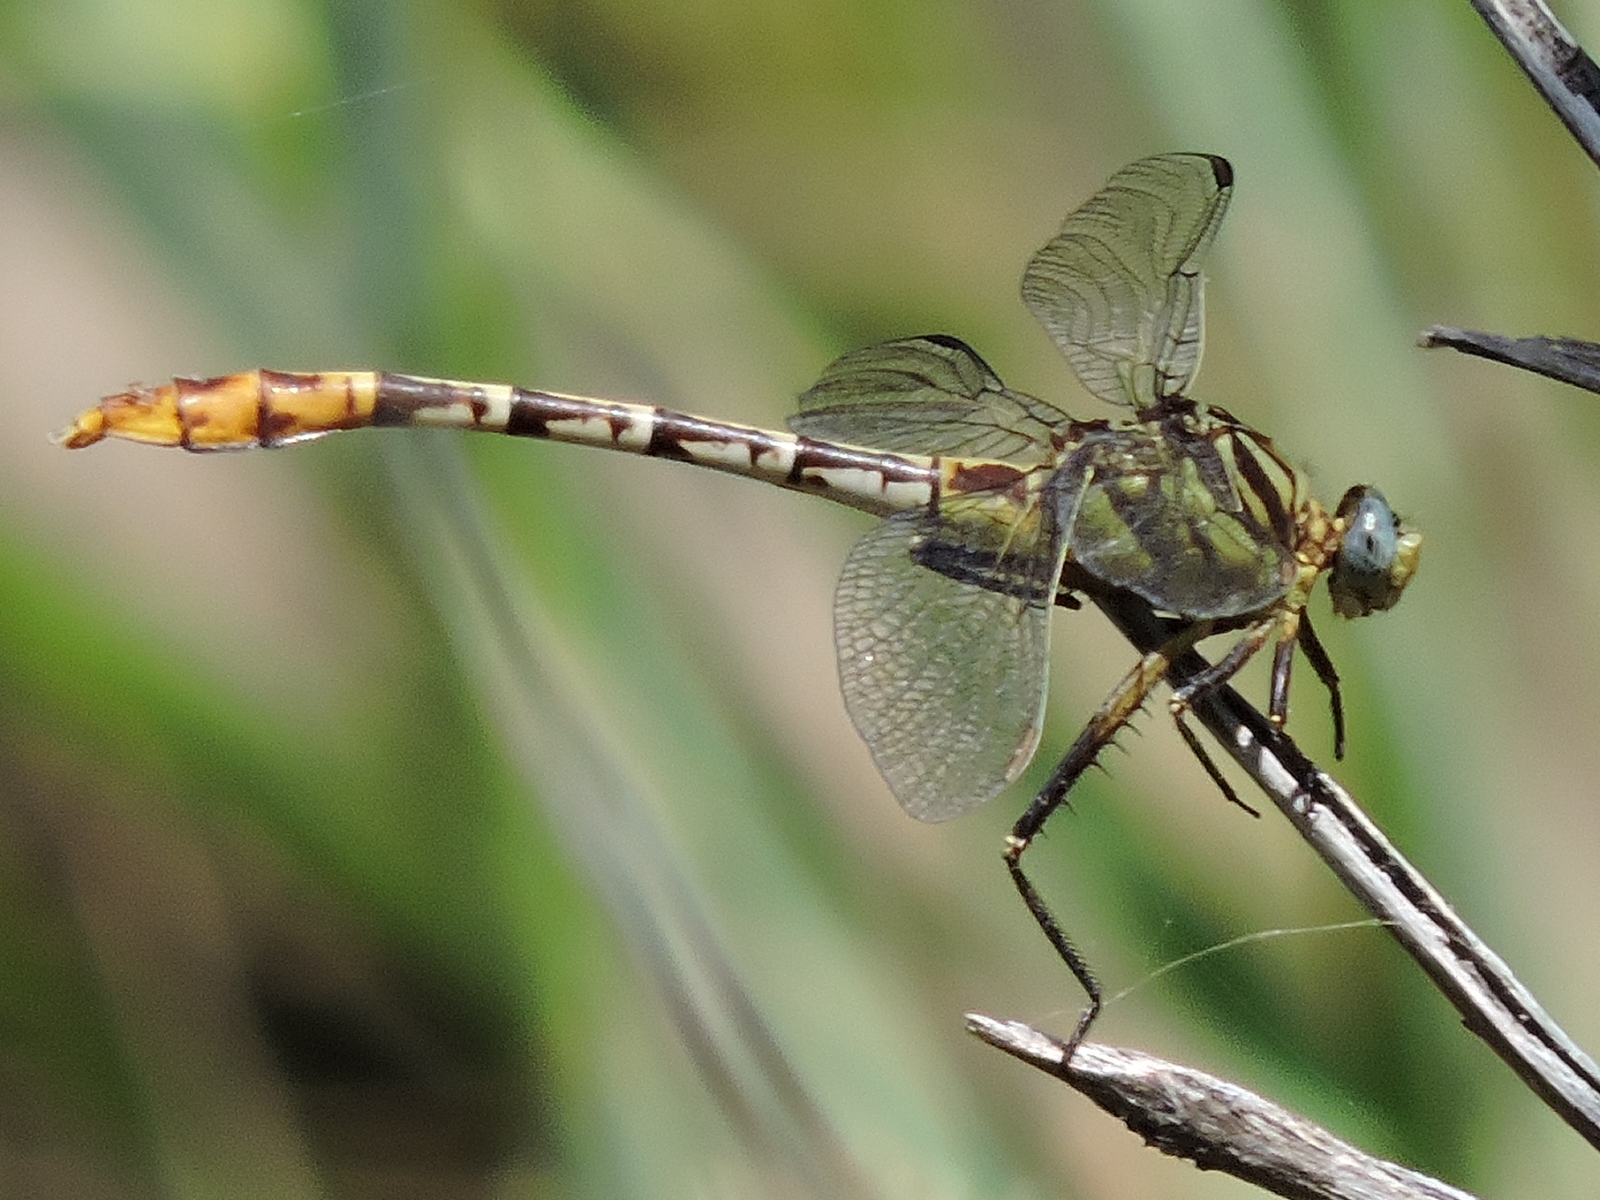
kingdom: Animalia
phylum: Arthropoda
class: Insecta
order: Odonata
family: Gomphidae
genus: Dromogomphus
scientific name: Dromogomphus spoliatus
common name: Flag-tailed spinyleg
